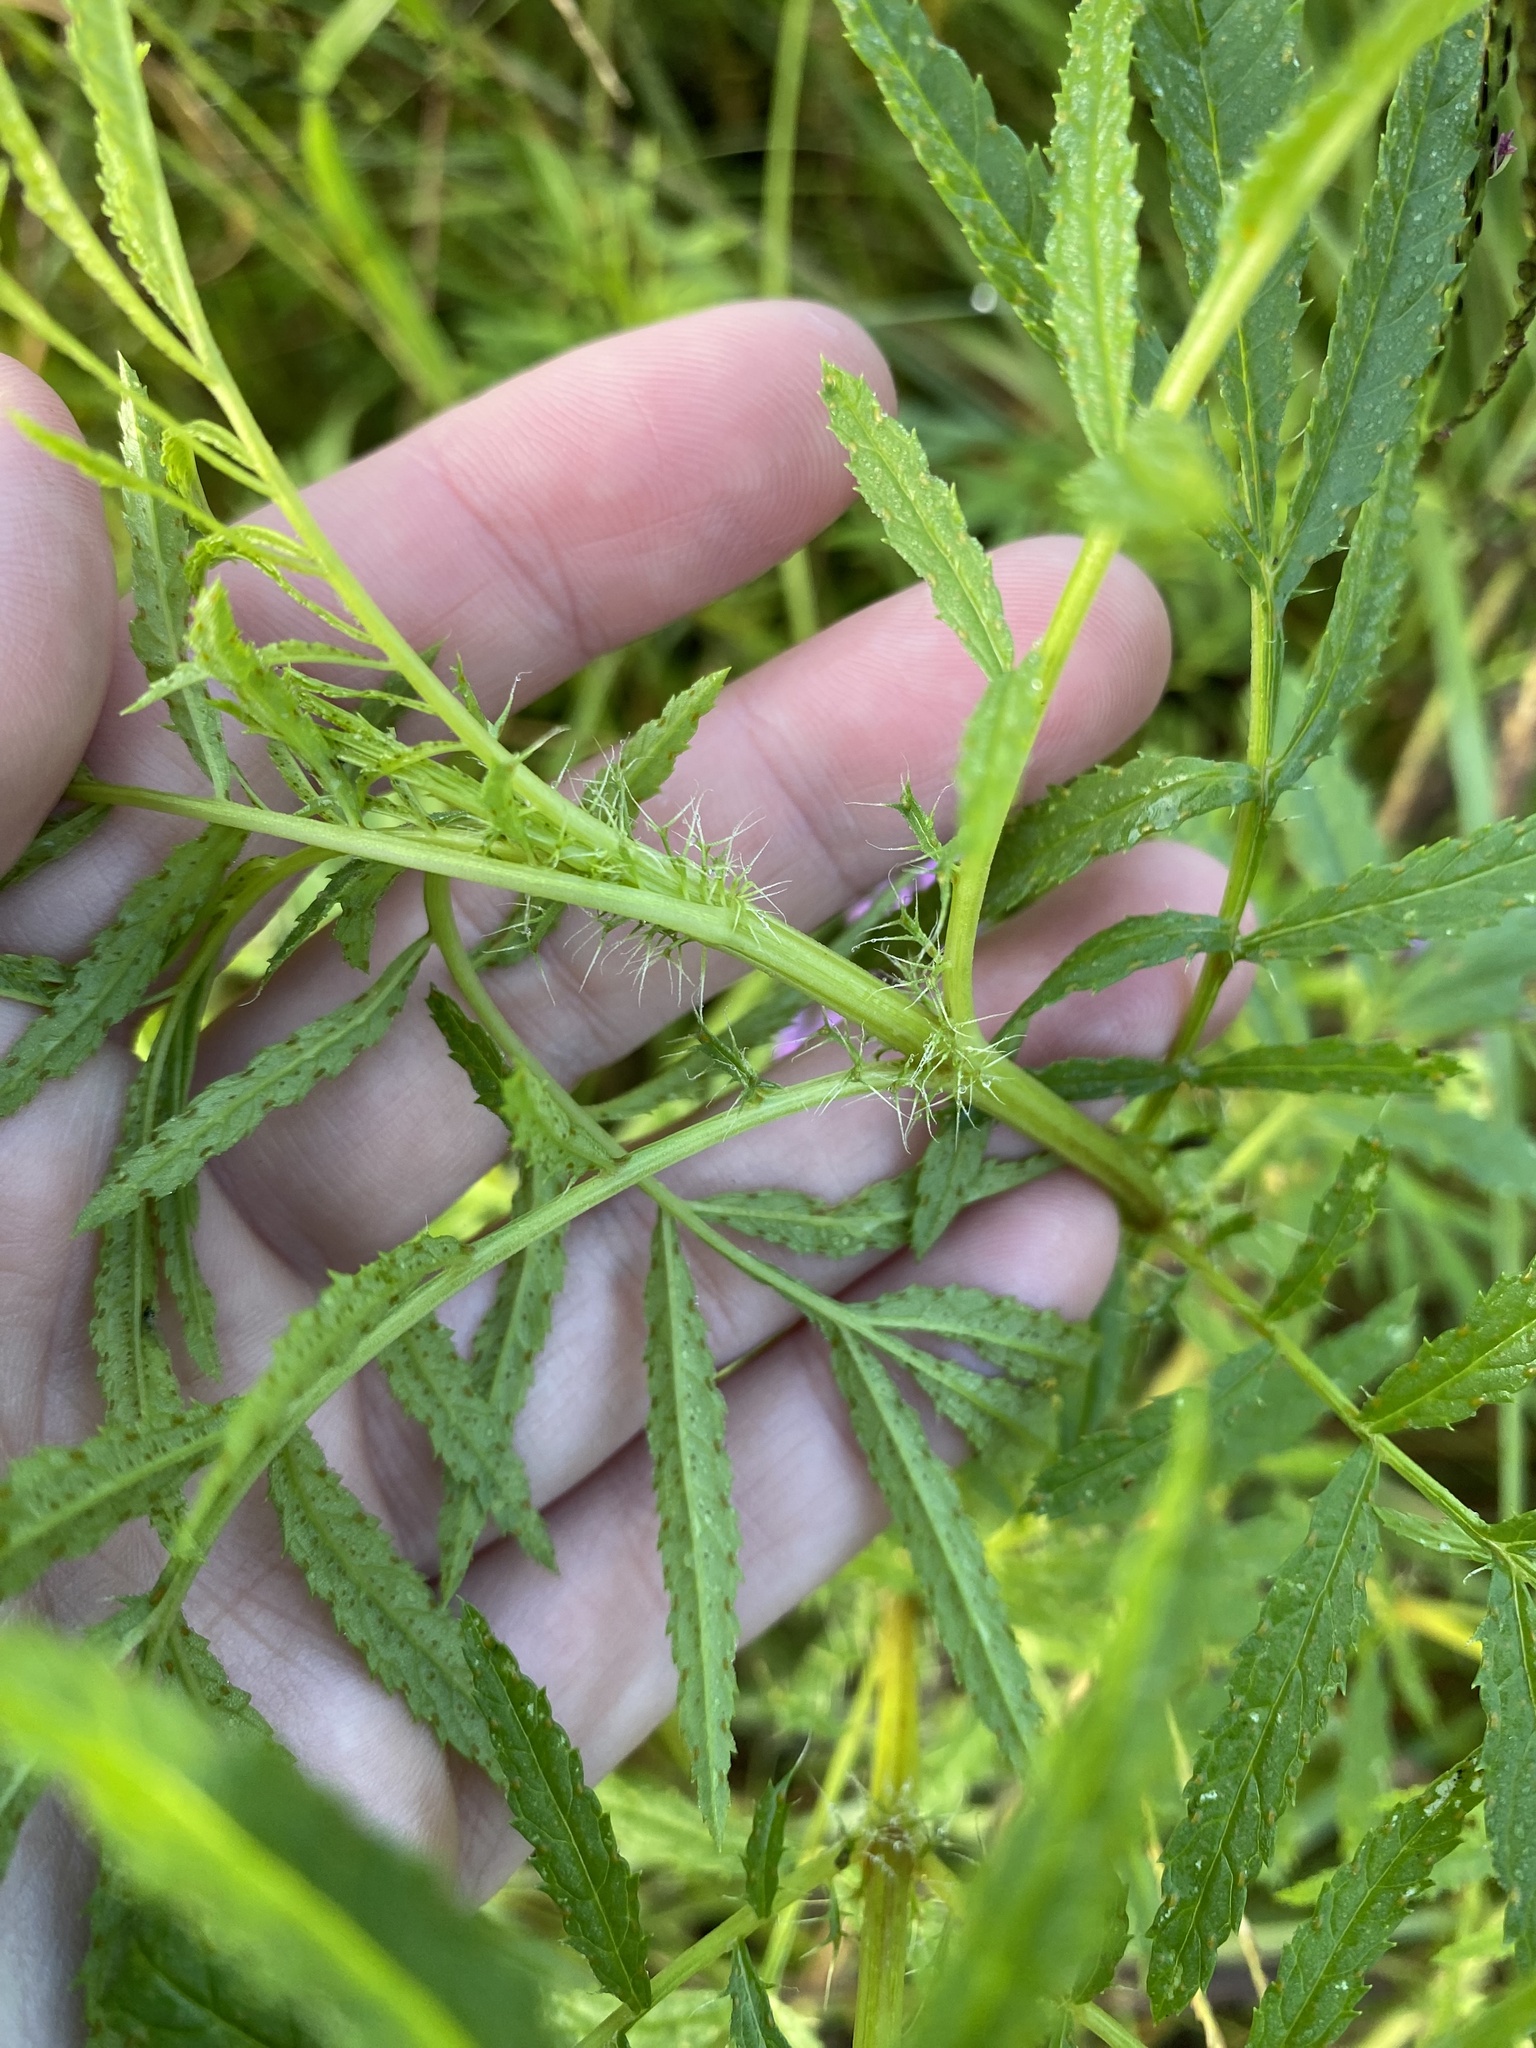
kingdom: Plantae
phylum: Tracheophyta
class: Magnoliopsida
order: Asterales
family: Asteraceae
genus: Tagetes
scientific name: Tagetes minuta
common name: Muster john henry
